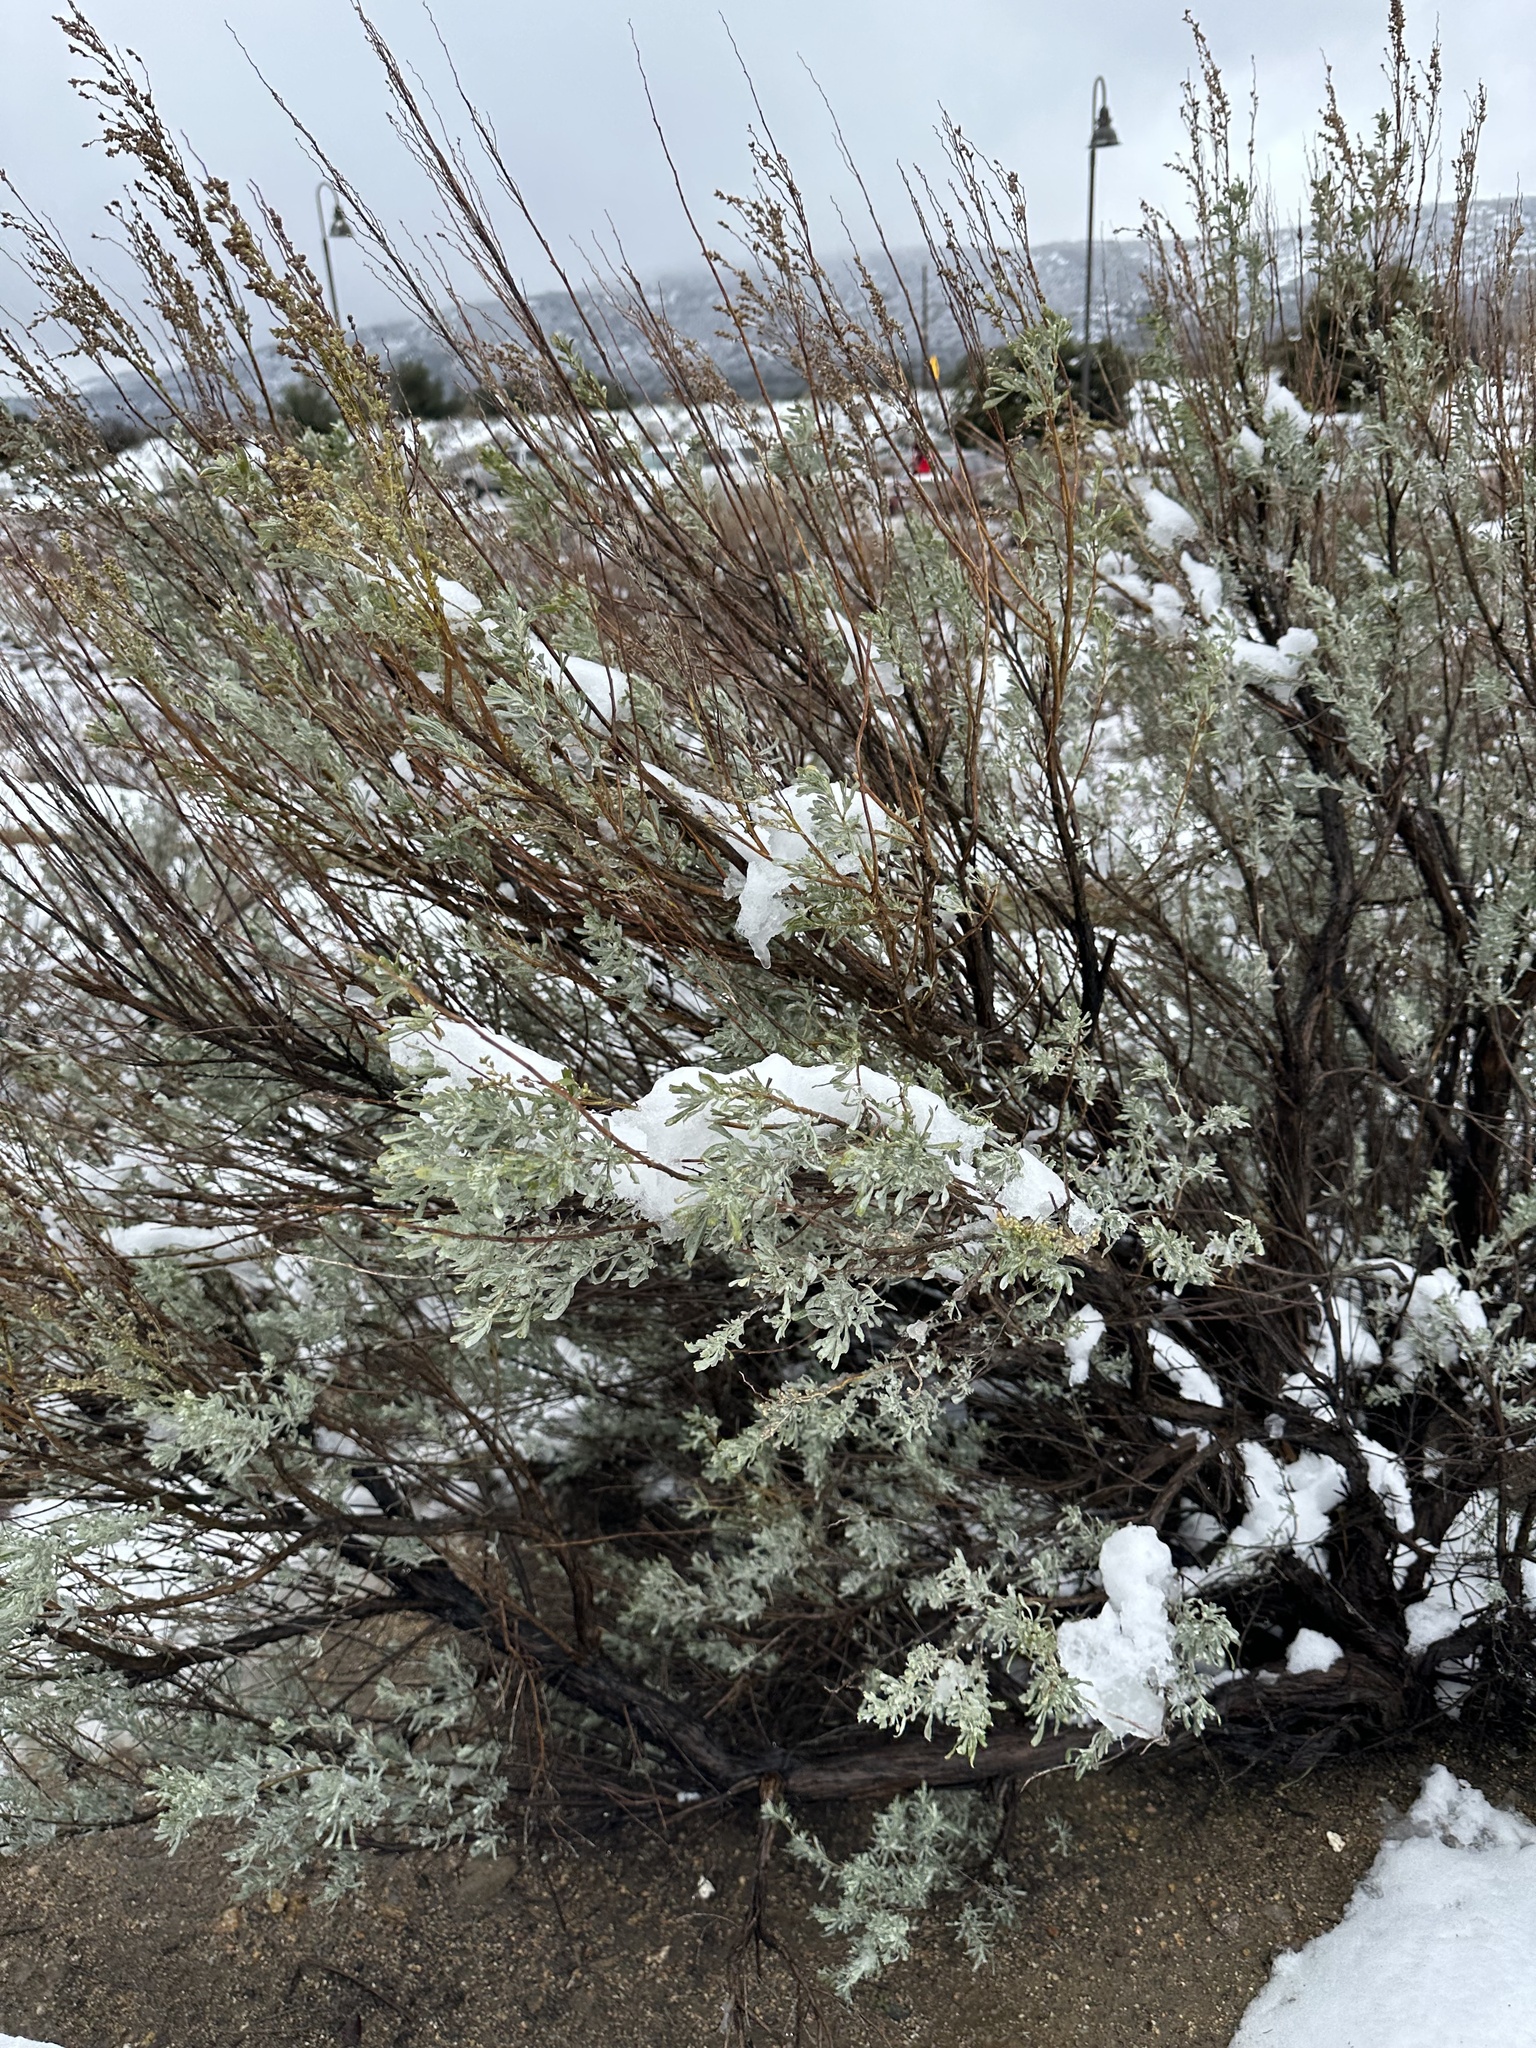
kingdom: Plantae
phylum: Tracheophyta
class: Magnoliopsida
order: Asterales
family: Asteraceae
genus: Artemisia
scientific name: Artemisia tridentata
